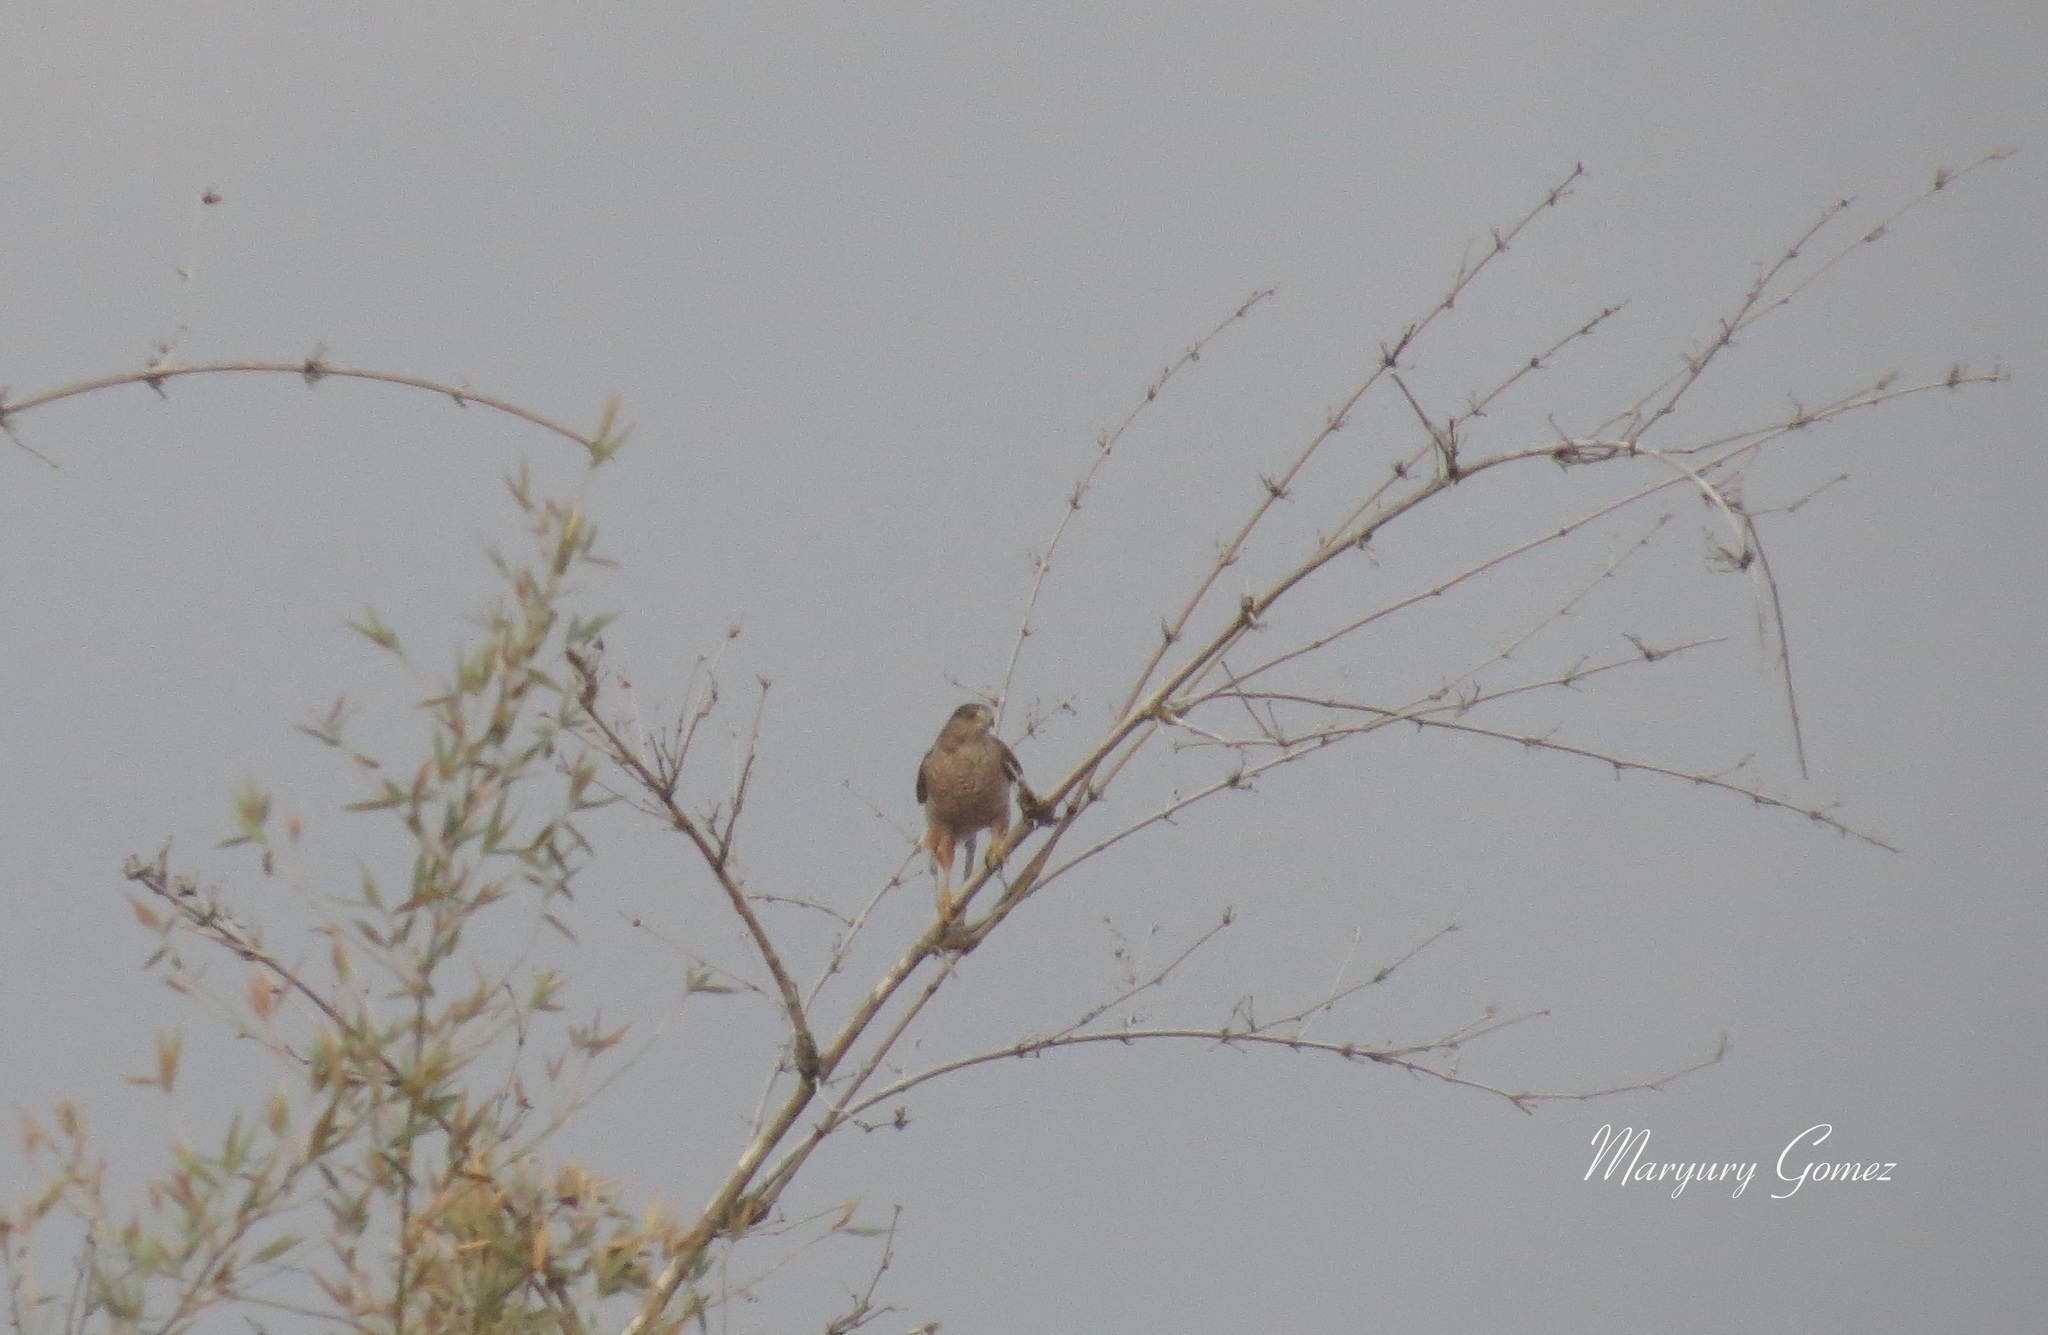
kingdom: Animalia
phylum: Chordata
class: Aves
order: Accipitriformes
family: Accipitridae
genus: Accipiter
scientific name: Accipiter cooperii
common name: Cooper's hawk
